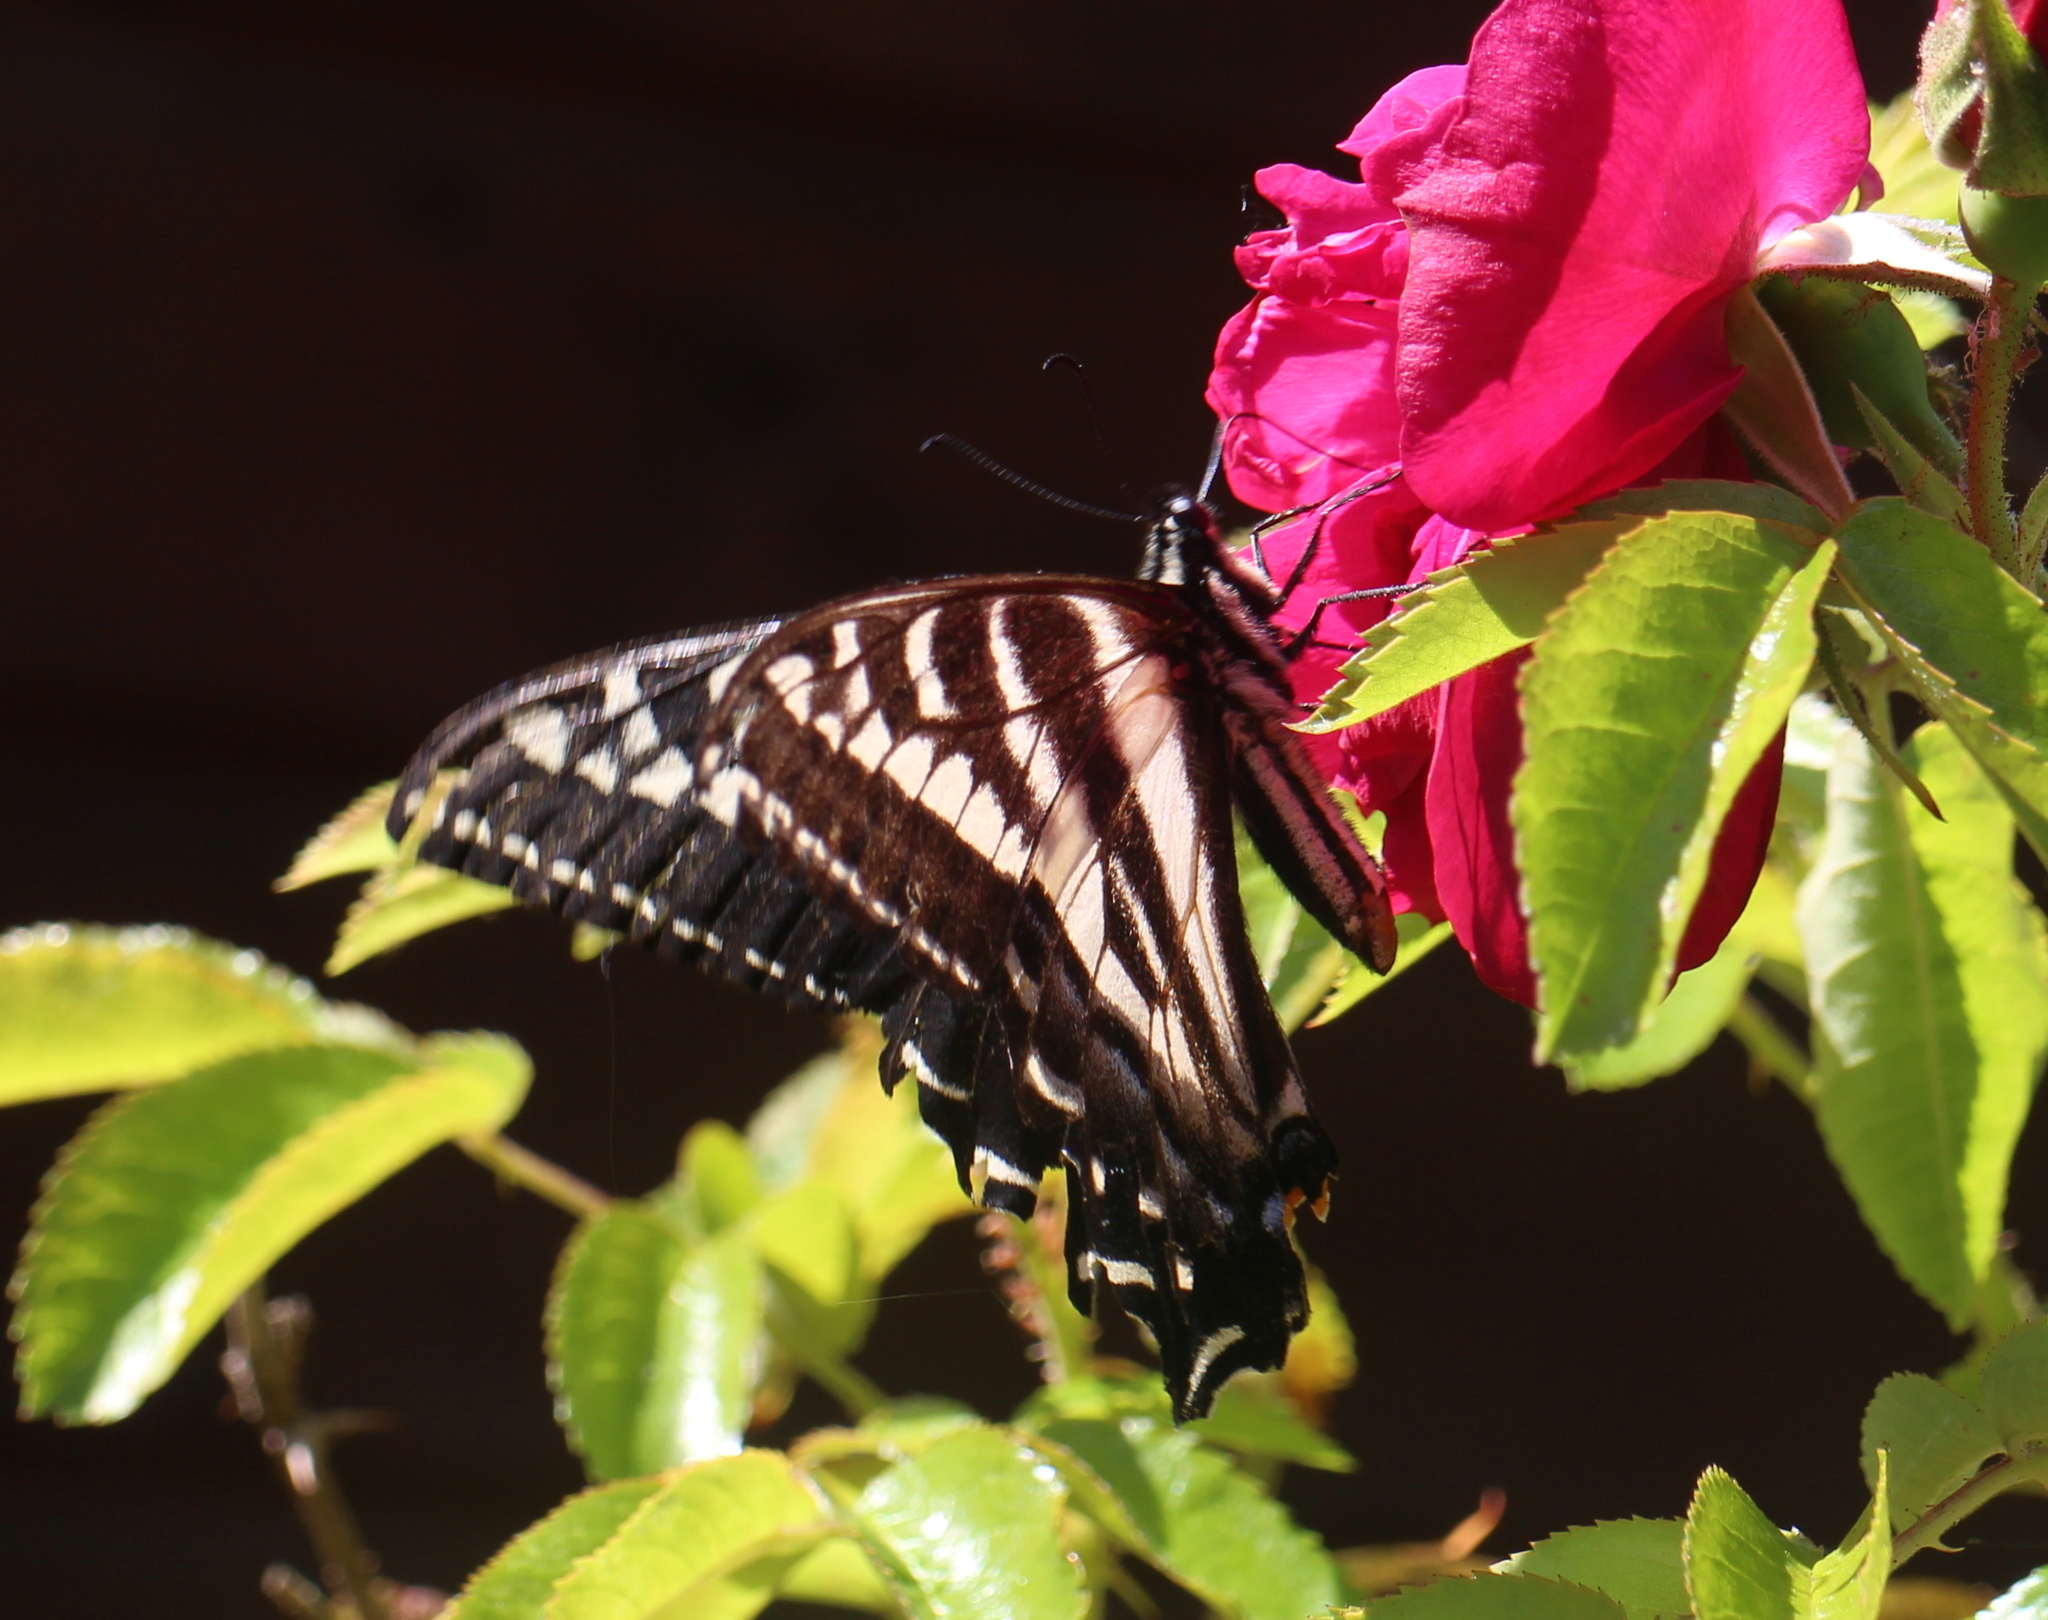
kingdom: Animalia
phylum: Arthropoda
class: Insecta
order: Lepidoptera
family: Papilionidae
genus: Papilio
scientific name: Papilio eurymedon
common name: Pale tiger swallowtail
